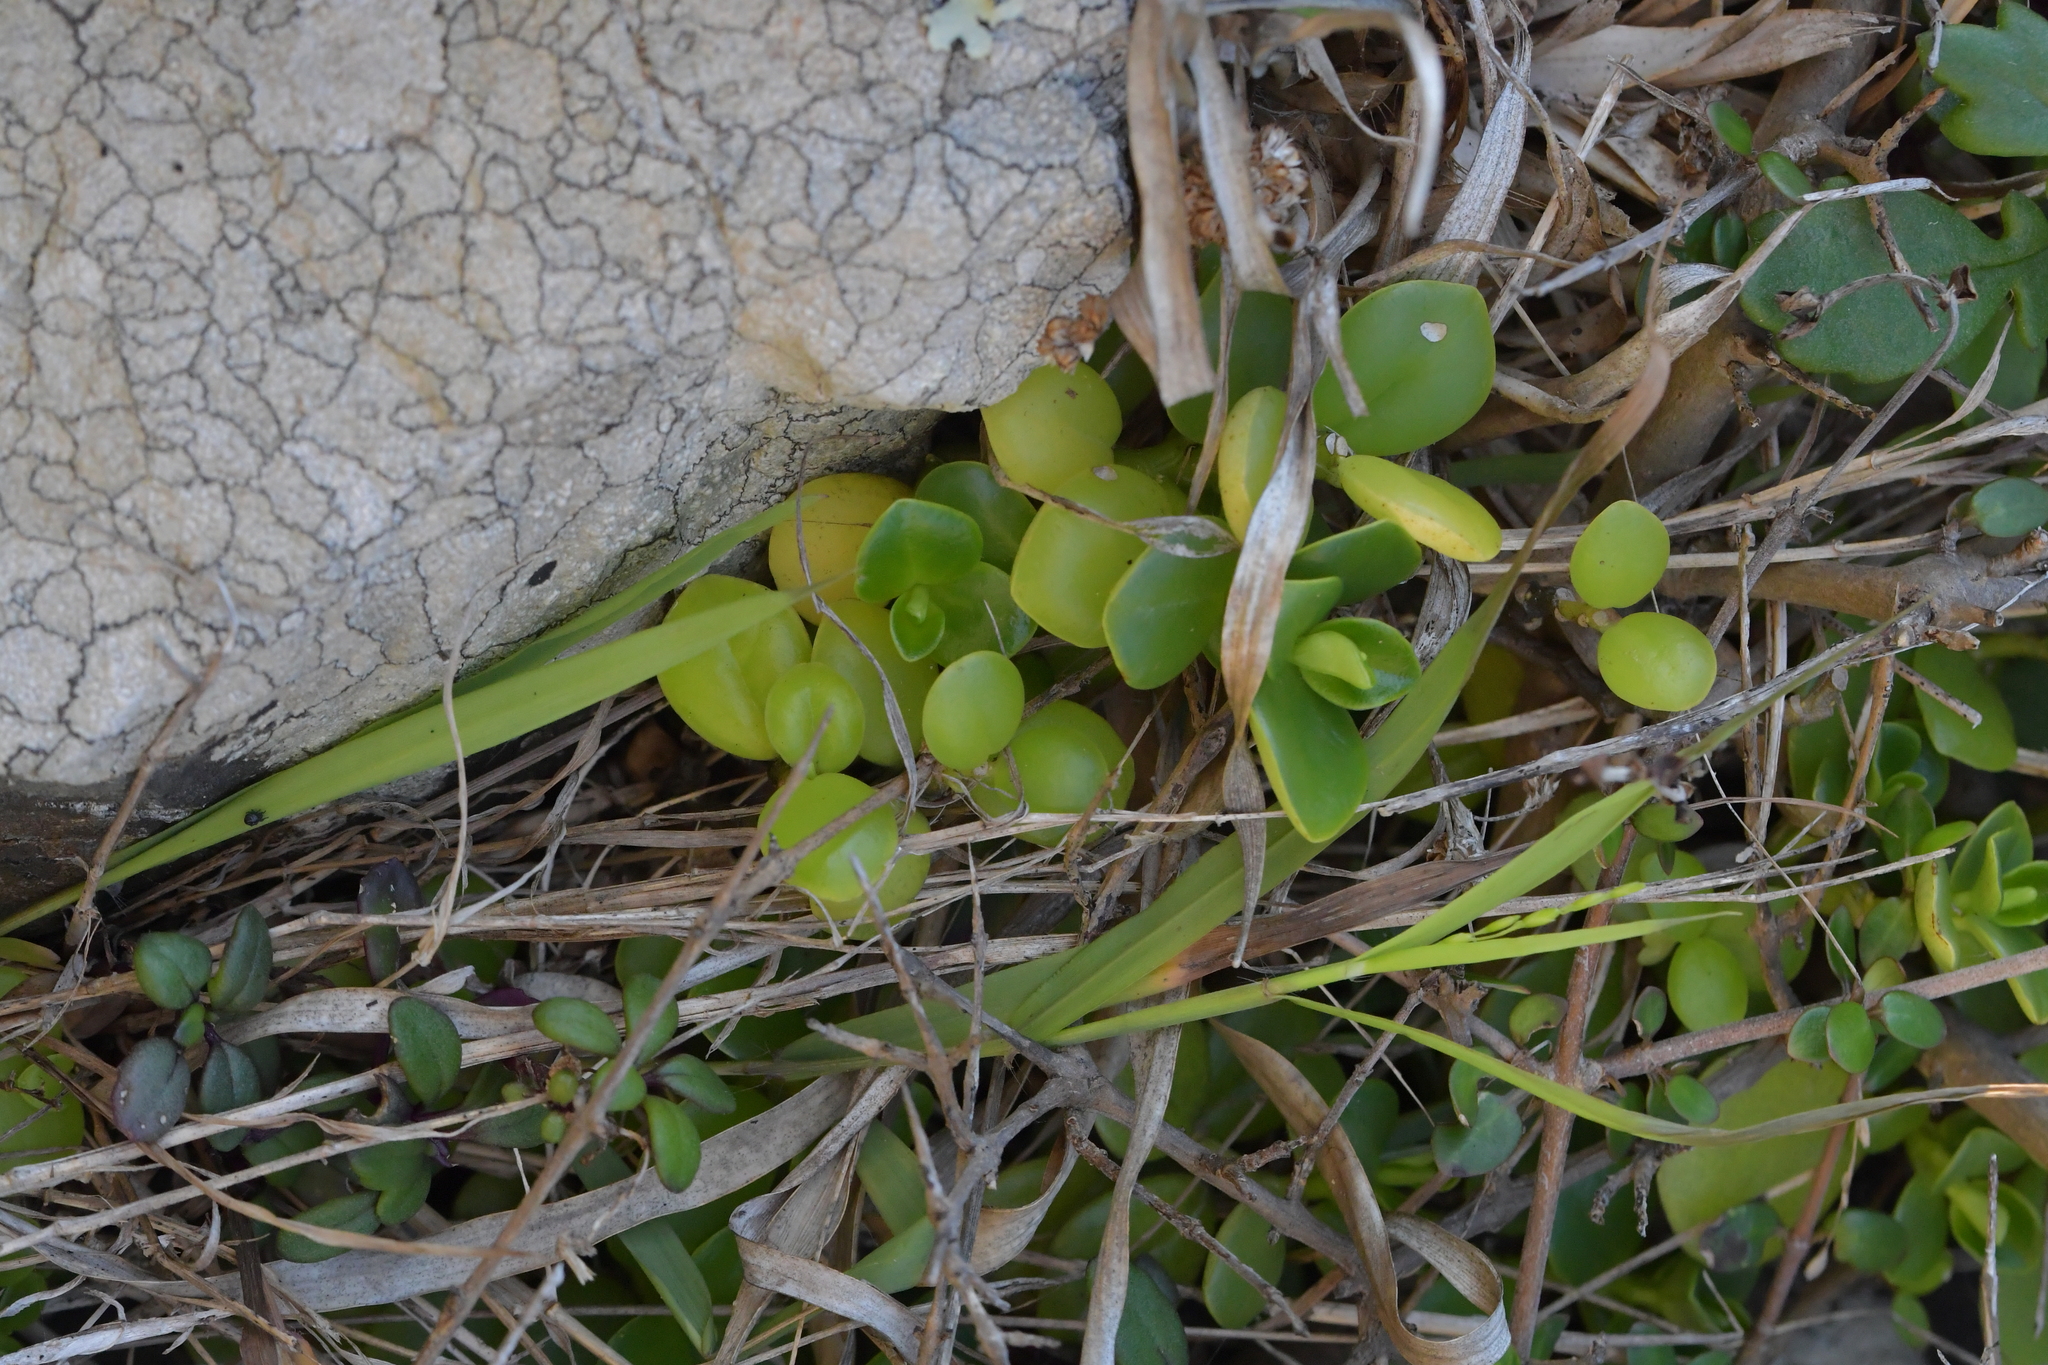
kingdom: Plantae
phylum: Tracheophyta
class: Magnoliopsida
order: Piperales
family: Piperaceae
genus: Peperomia
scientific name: Peperomia urvilleana
